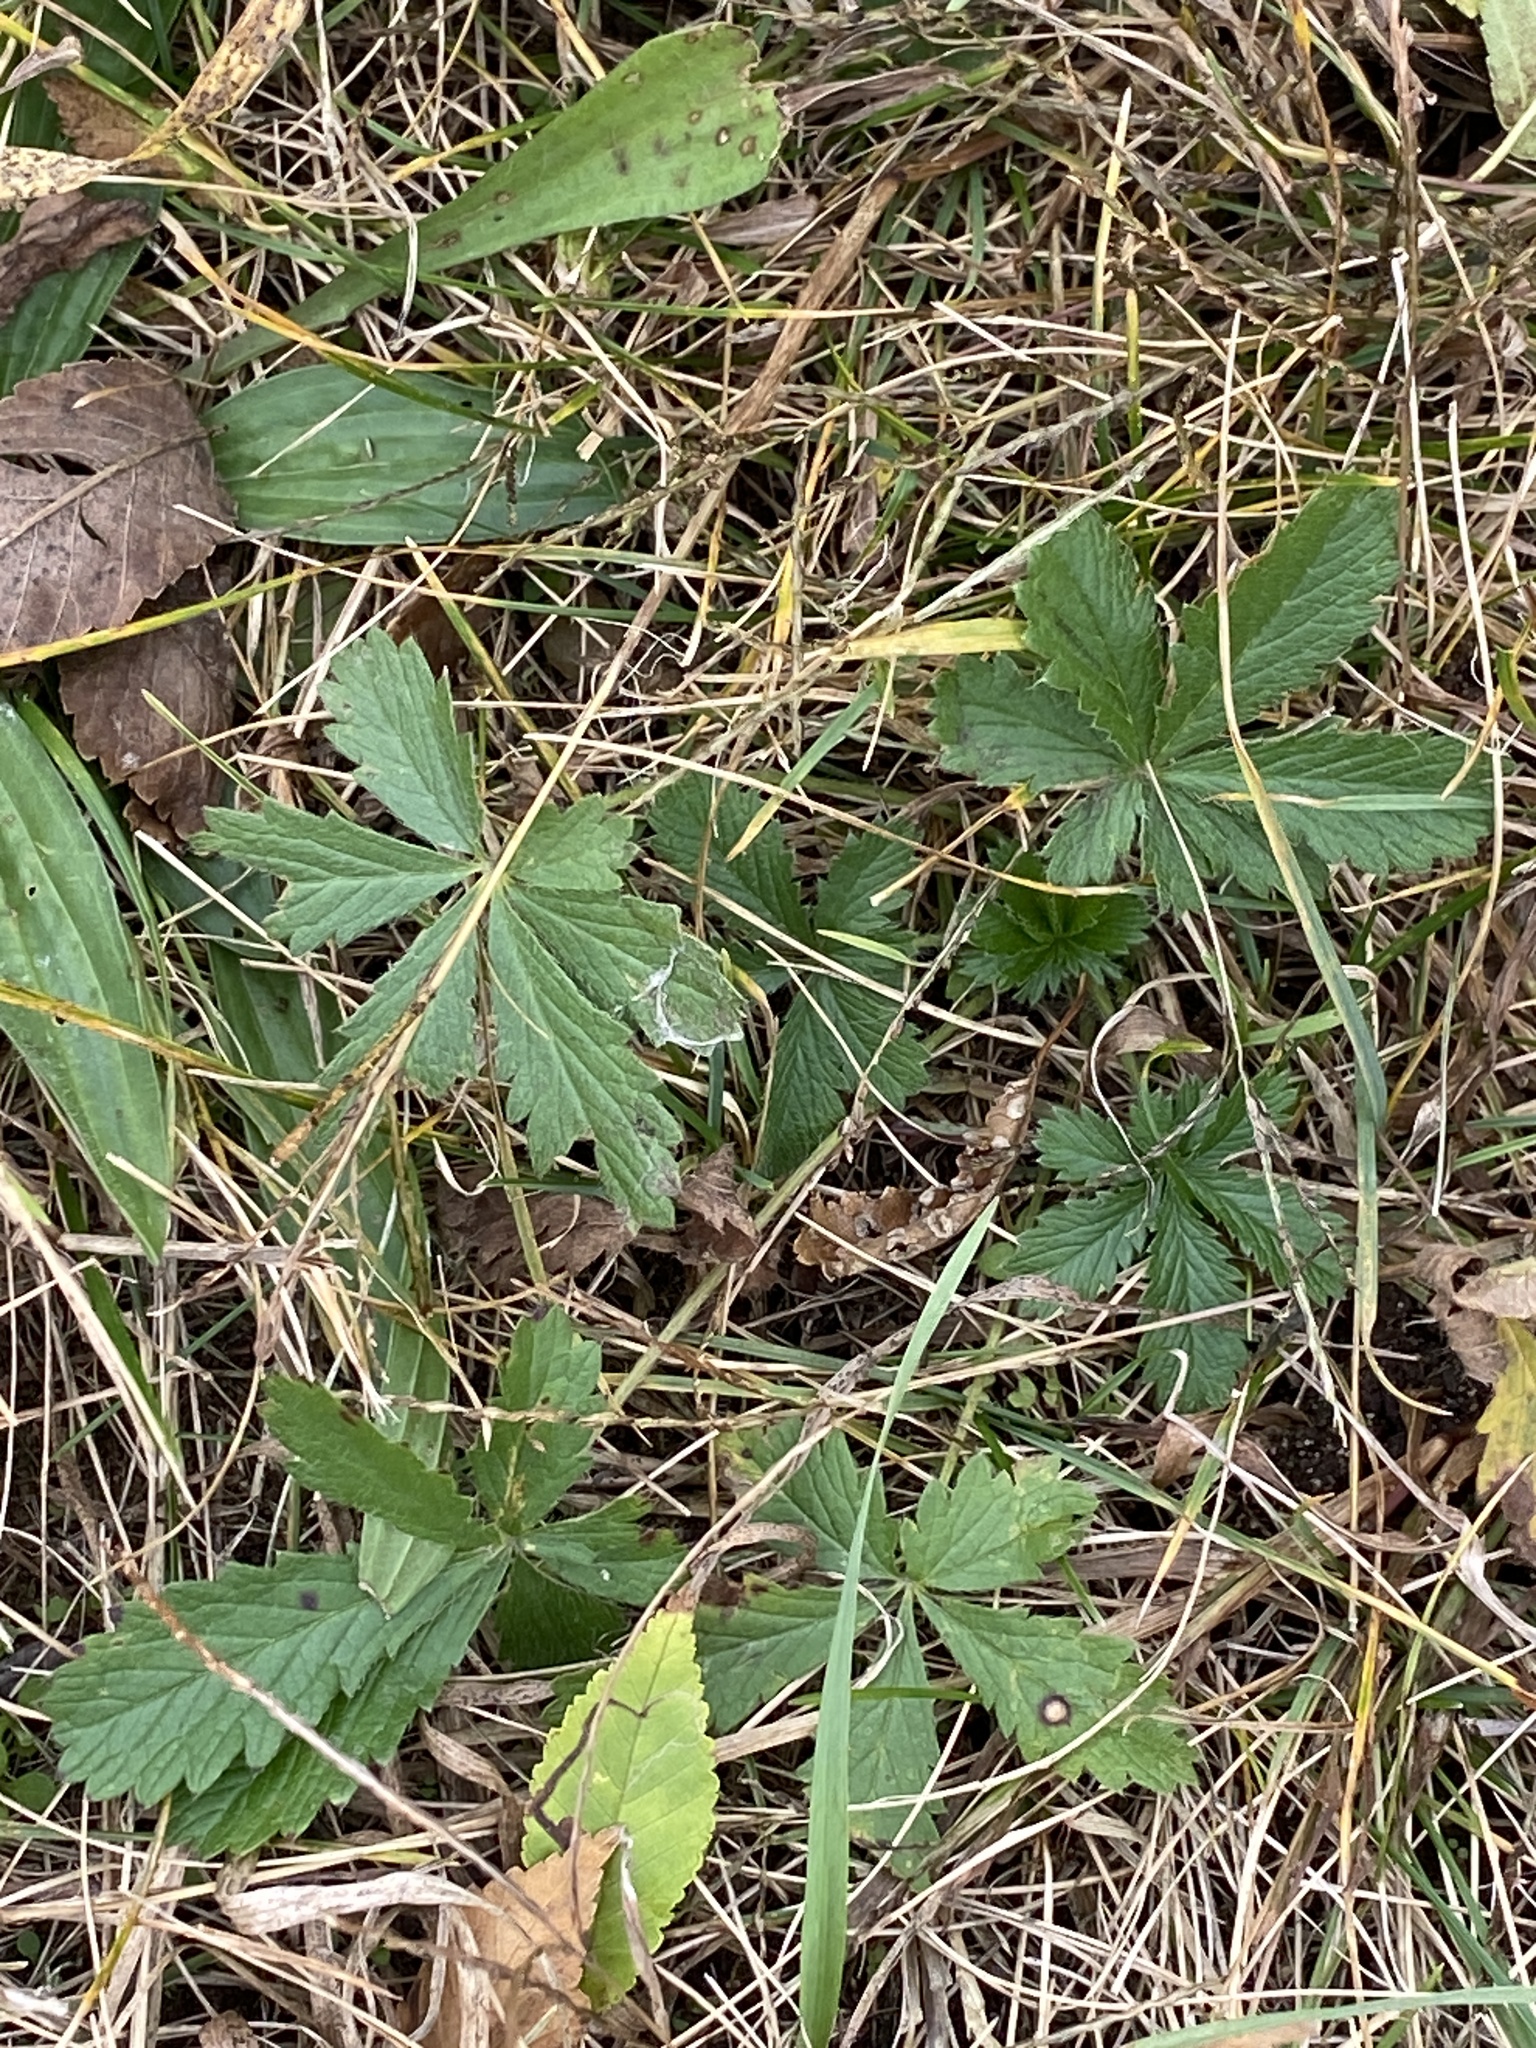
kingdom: Plantae
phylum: Tracheophyta
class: Magnoliopsida
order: Rosales
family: Rosaceae
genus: Potentilla
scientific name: Potentilla recta
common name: Sulphur cinquefoil
